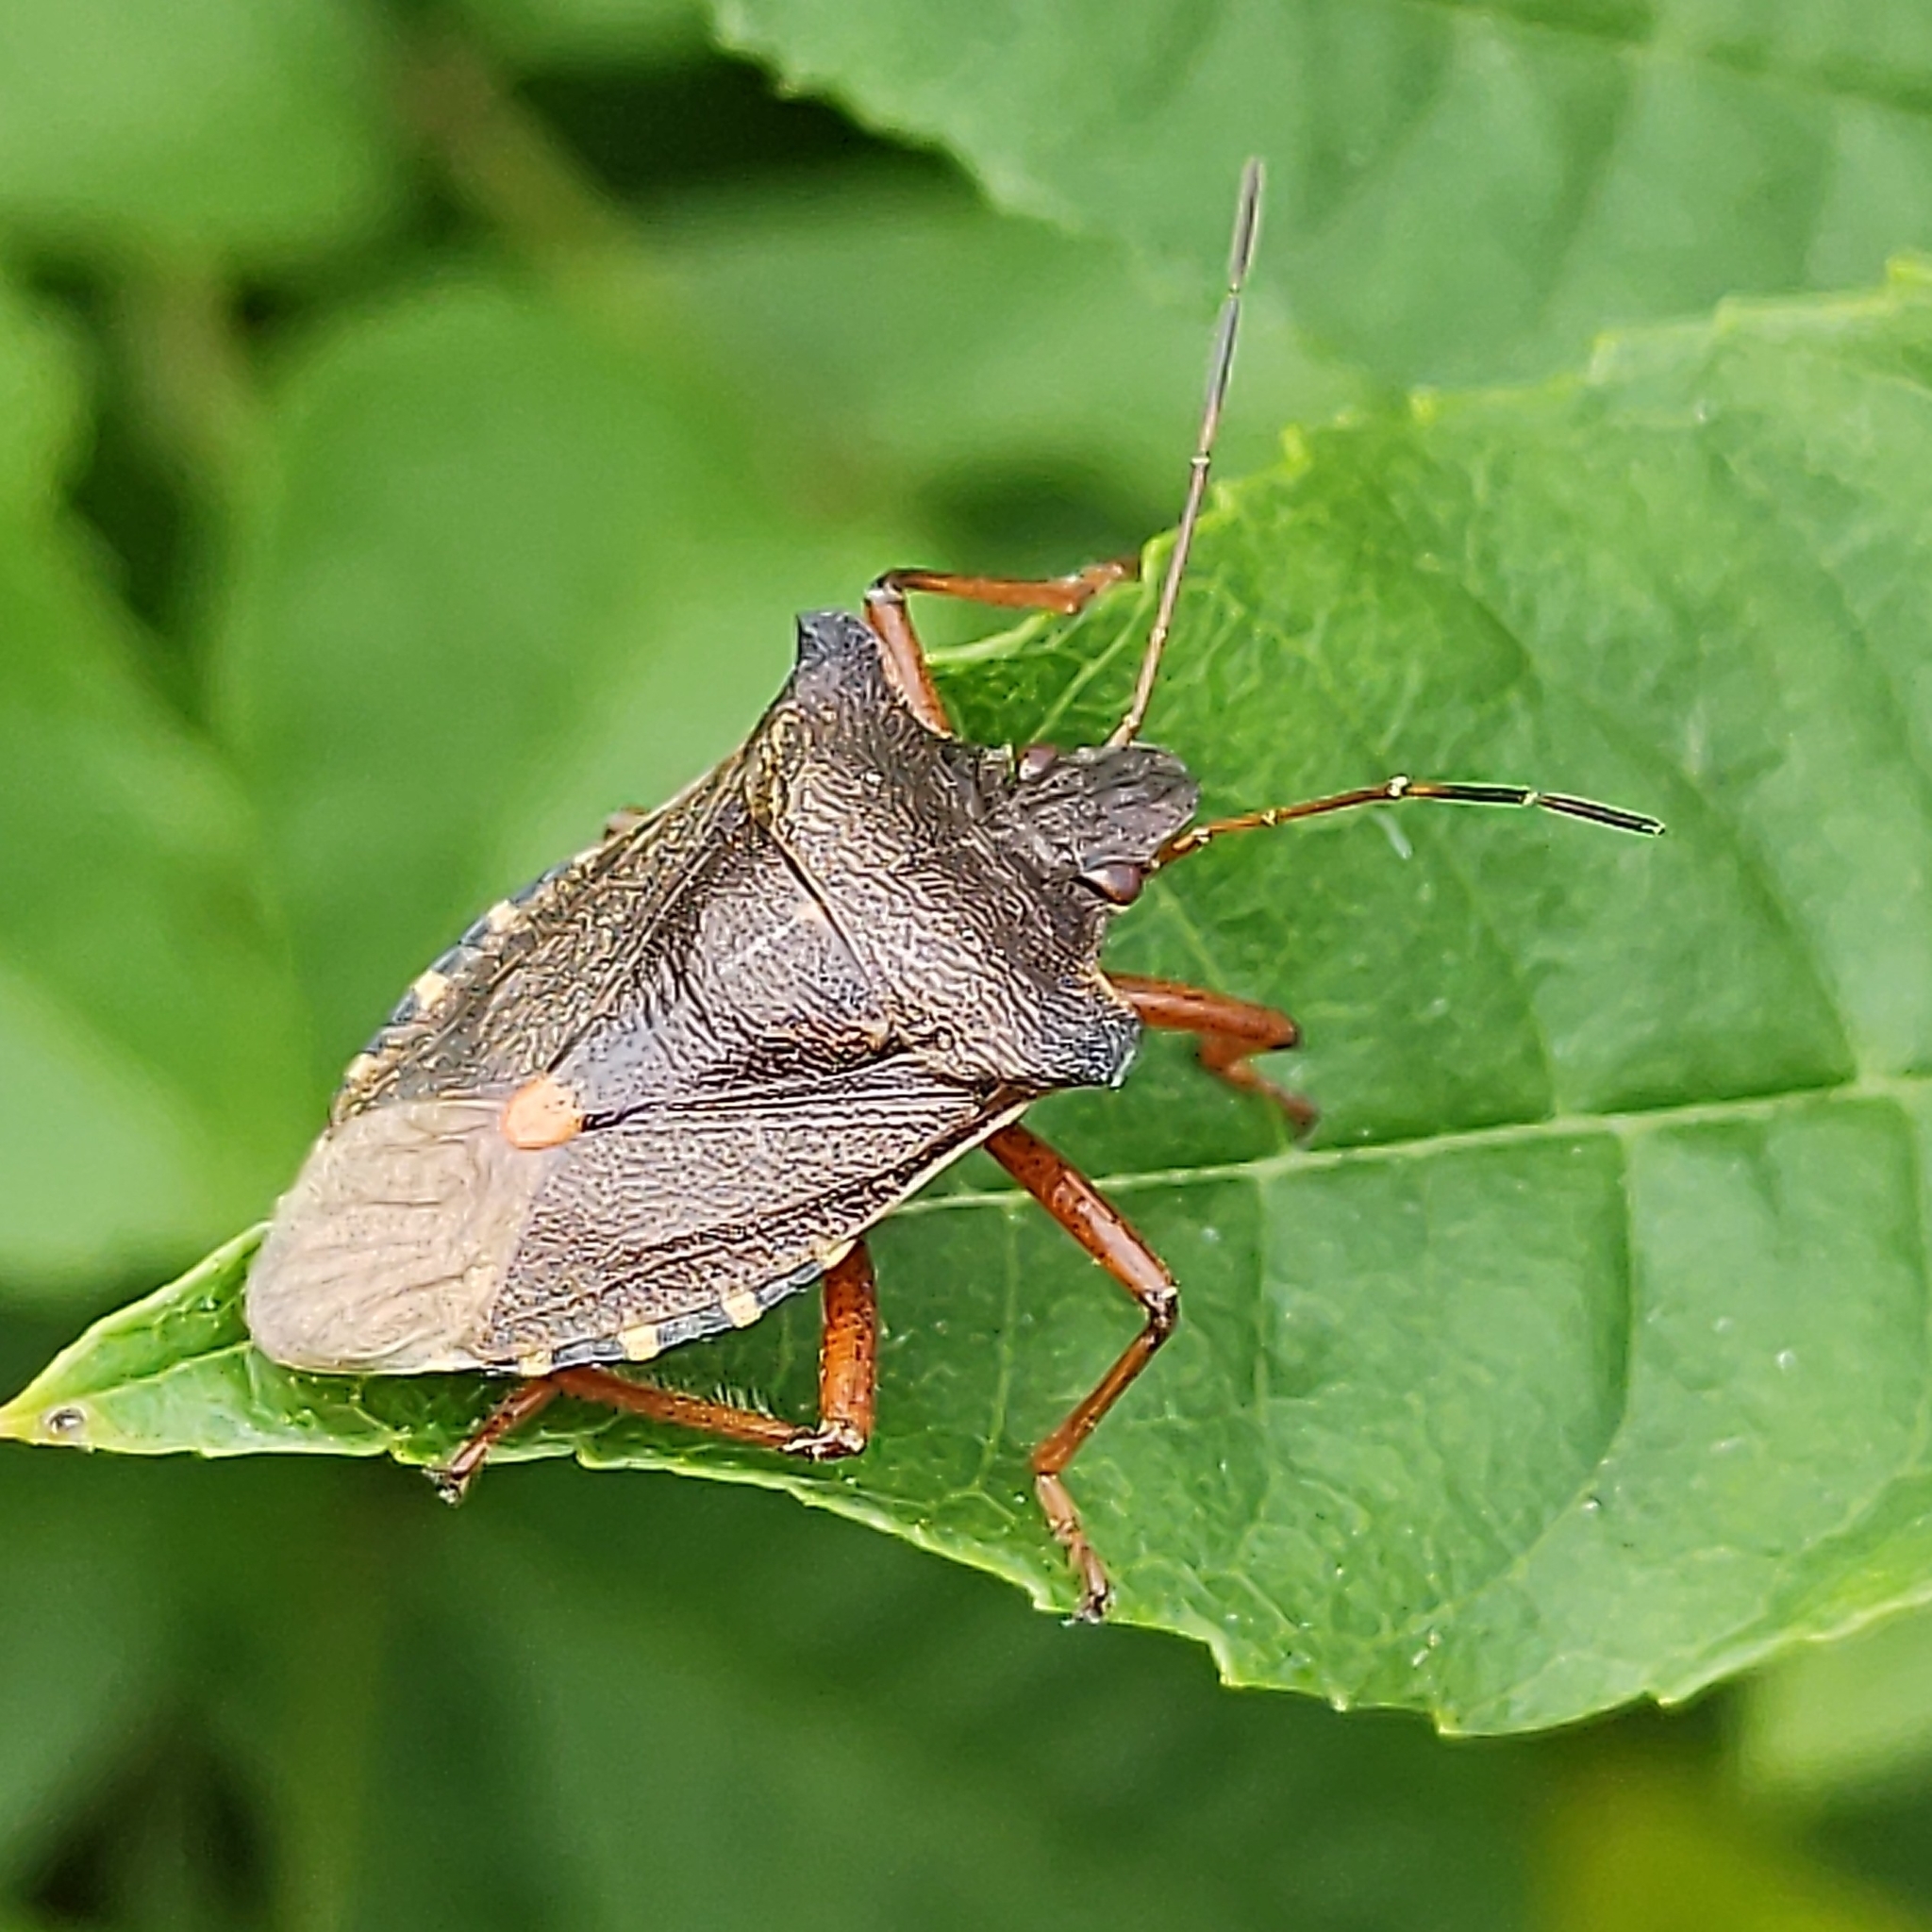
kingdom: Animalia
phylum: Arthropoda
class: Insecta
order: Hemiptera
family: Pentatomidae
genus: Pentatoma
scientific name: Pentatoma rufipes
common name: Forest bug
